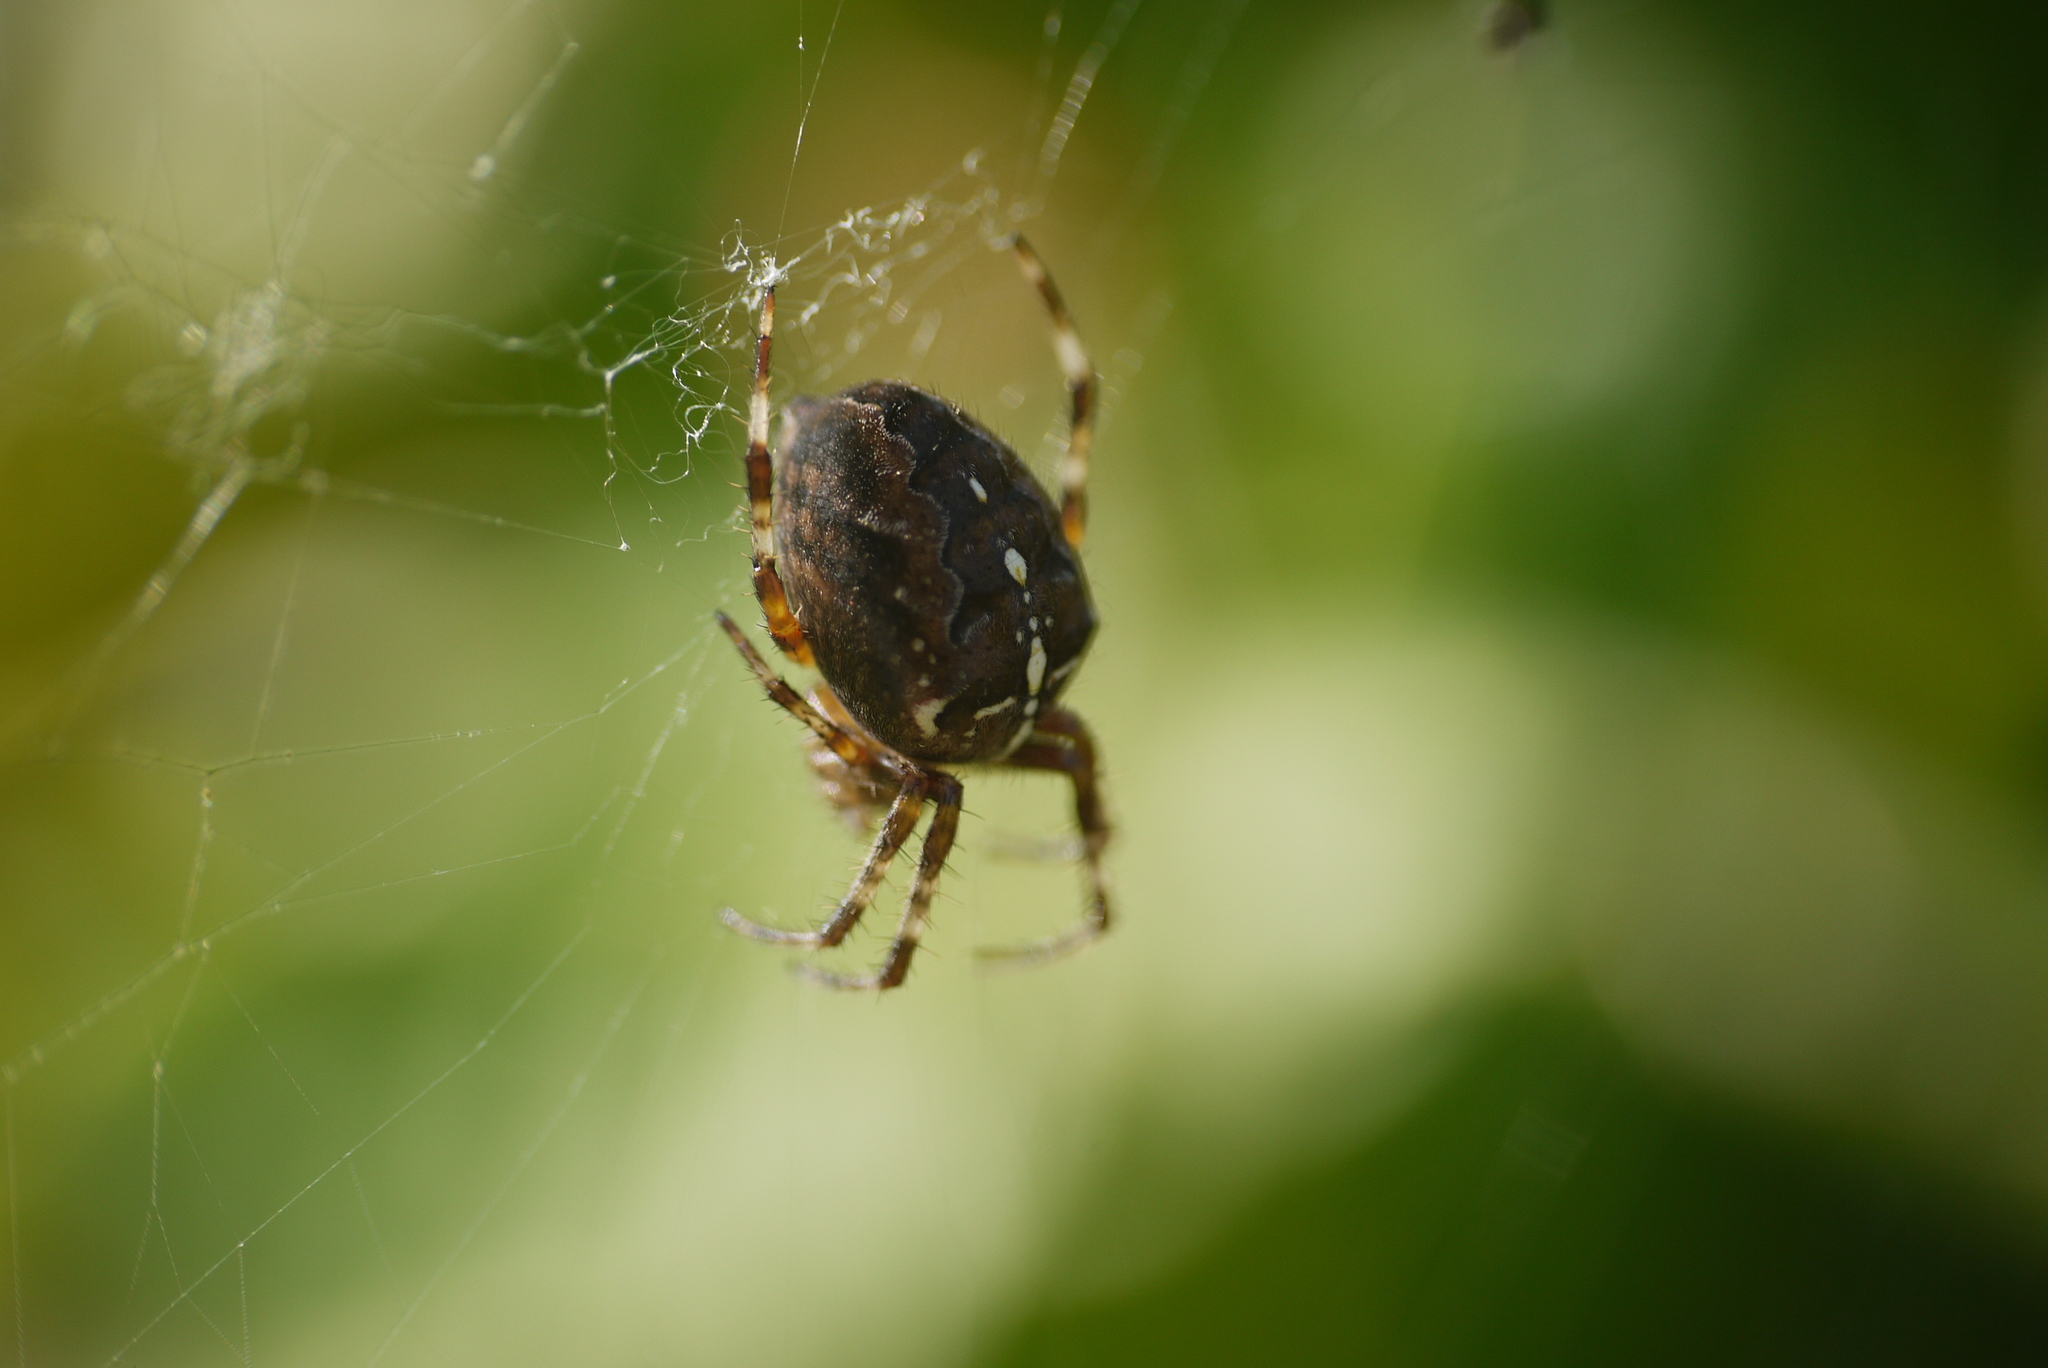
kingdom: Animalia
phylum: Arthropoda
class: Arachnida
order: Araneae
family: Araneidae
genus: Araneus
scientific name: Araneus diadematus
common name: Cross orbweaver
